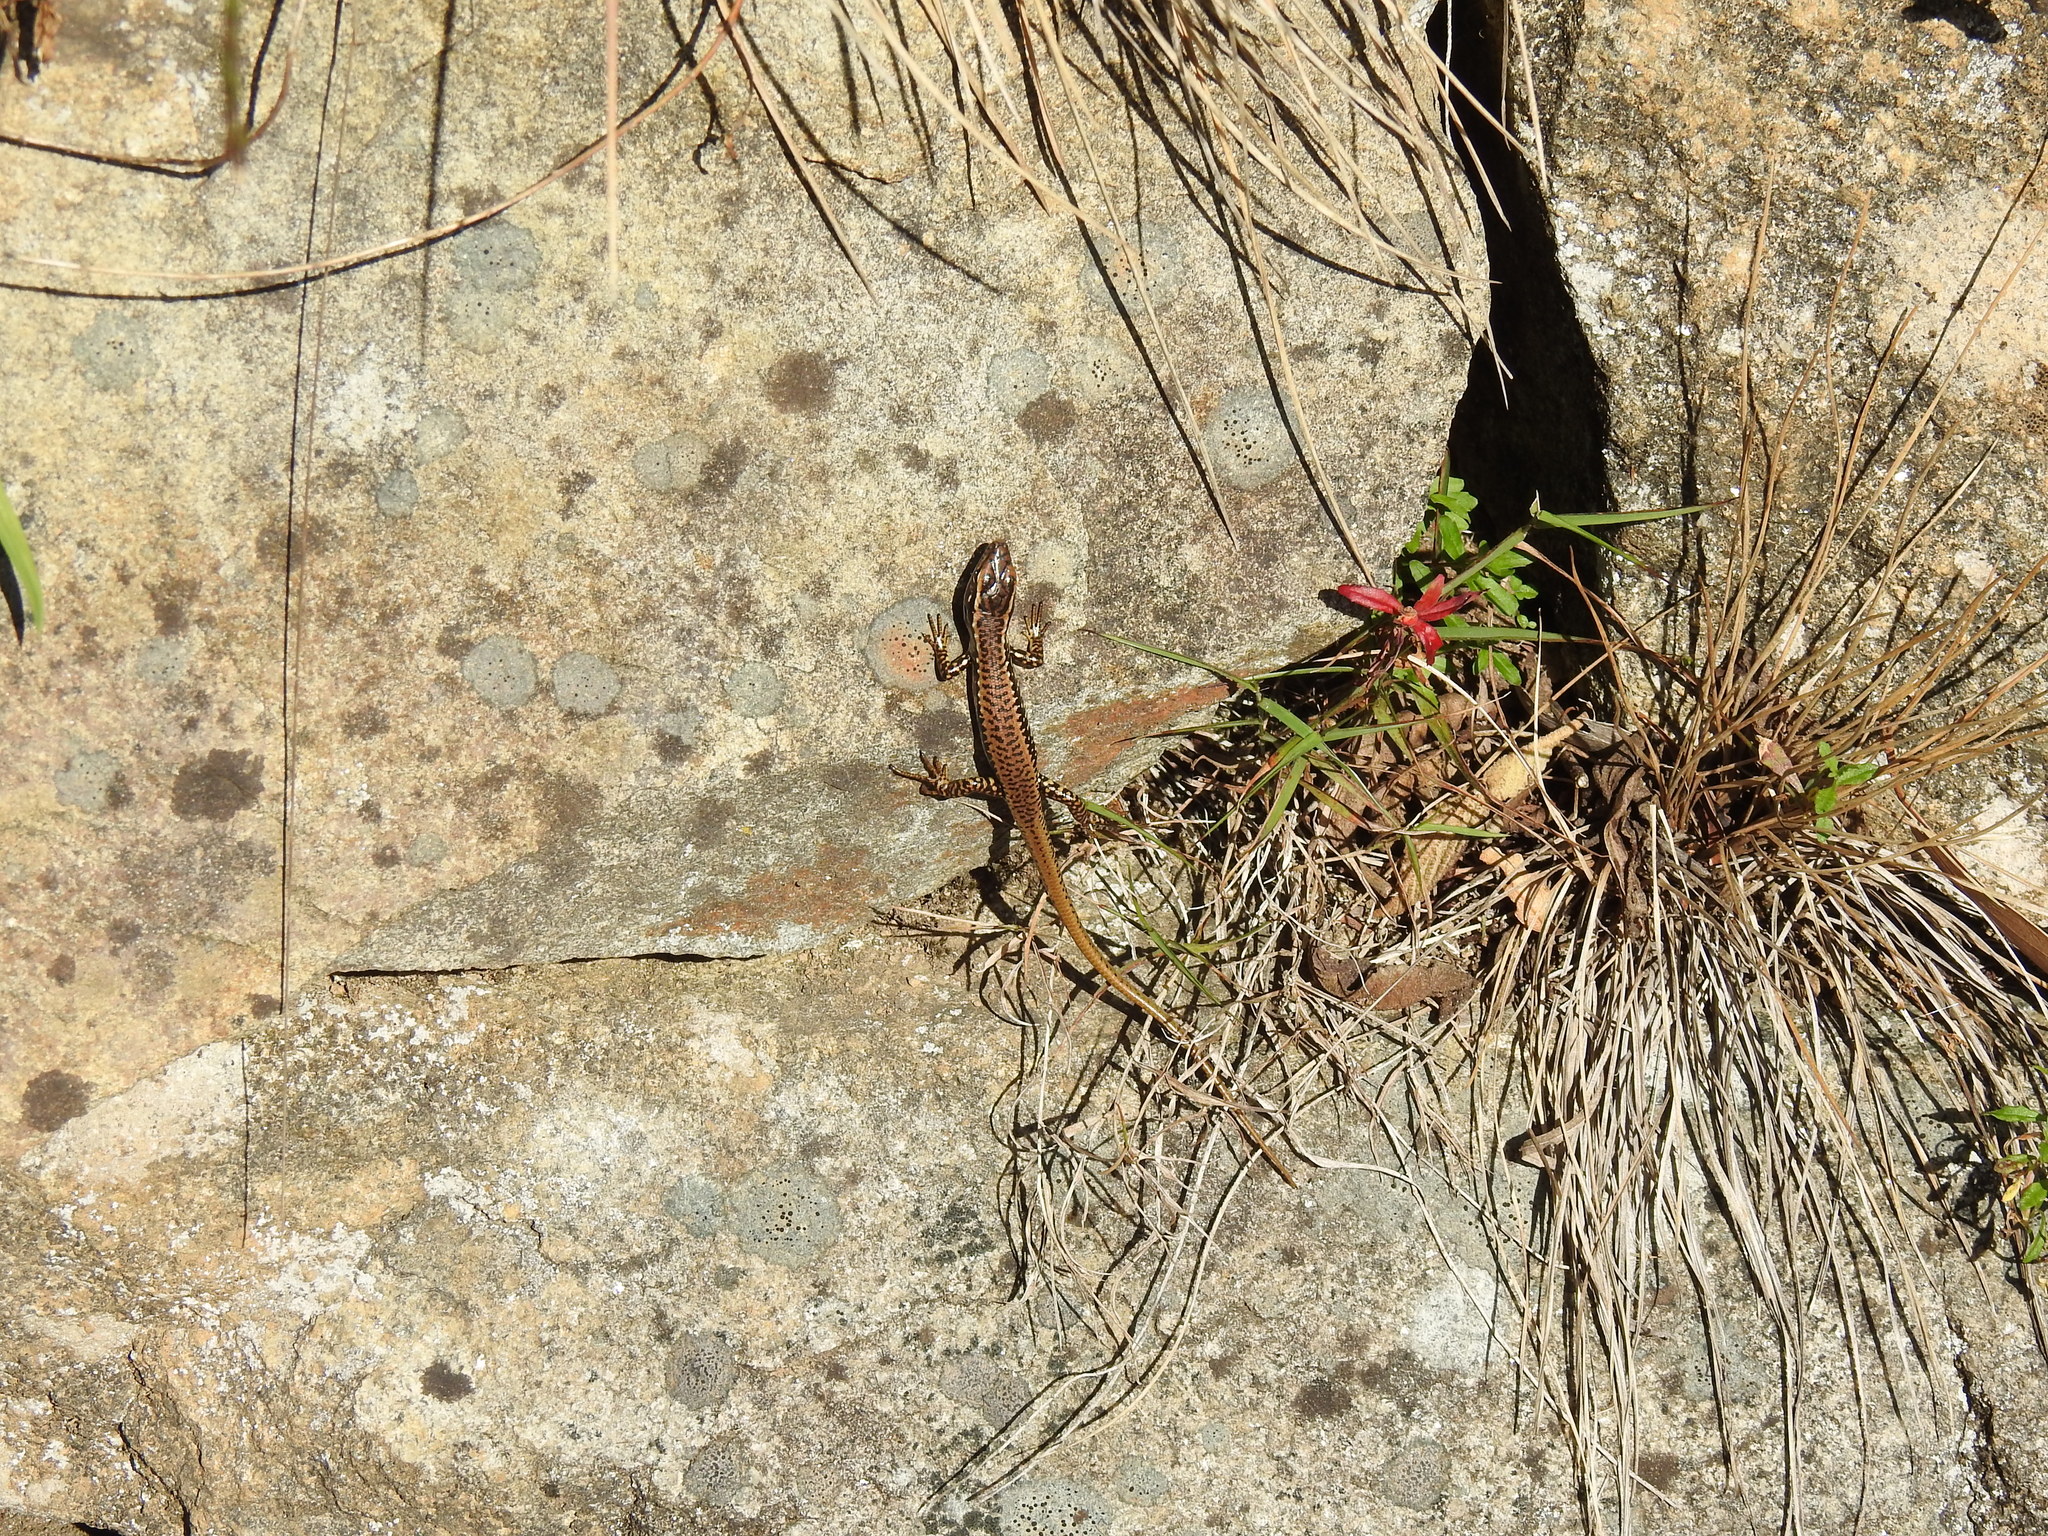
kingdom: Animalia
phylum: Chordata
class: Squamata
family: Scincidae
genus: Eulamprus
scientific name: Eulamprus heatwolei
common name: Warm-temperate water-skink
